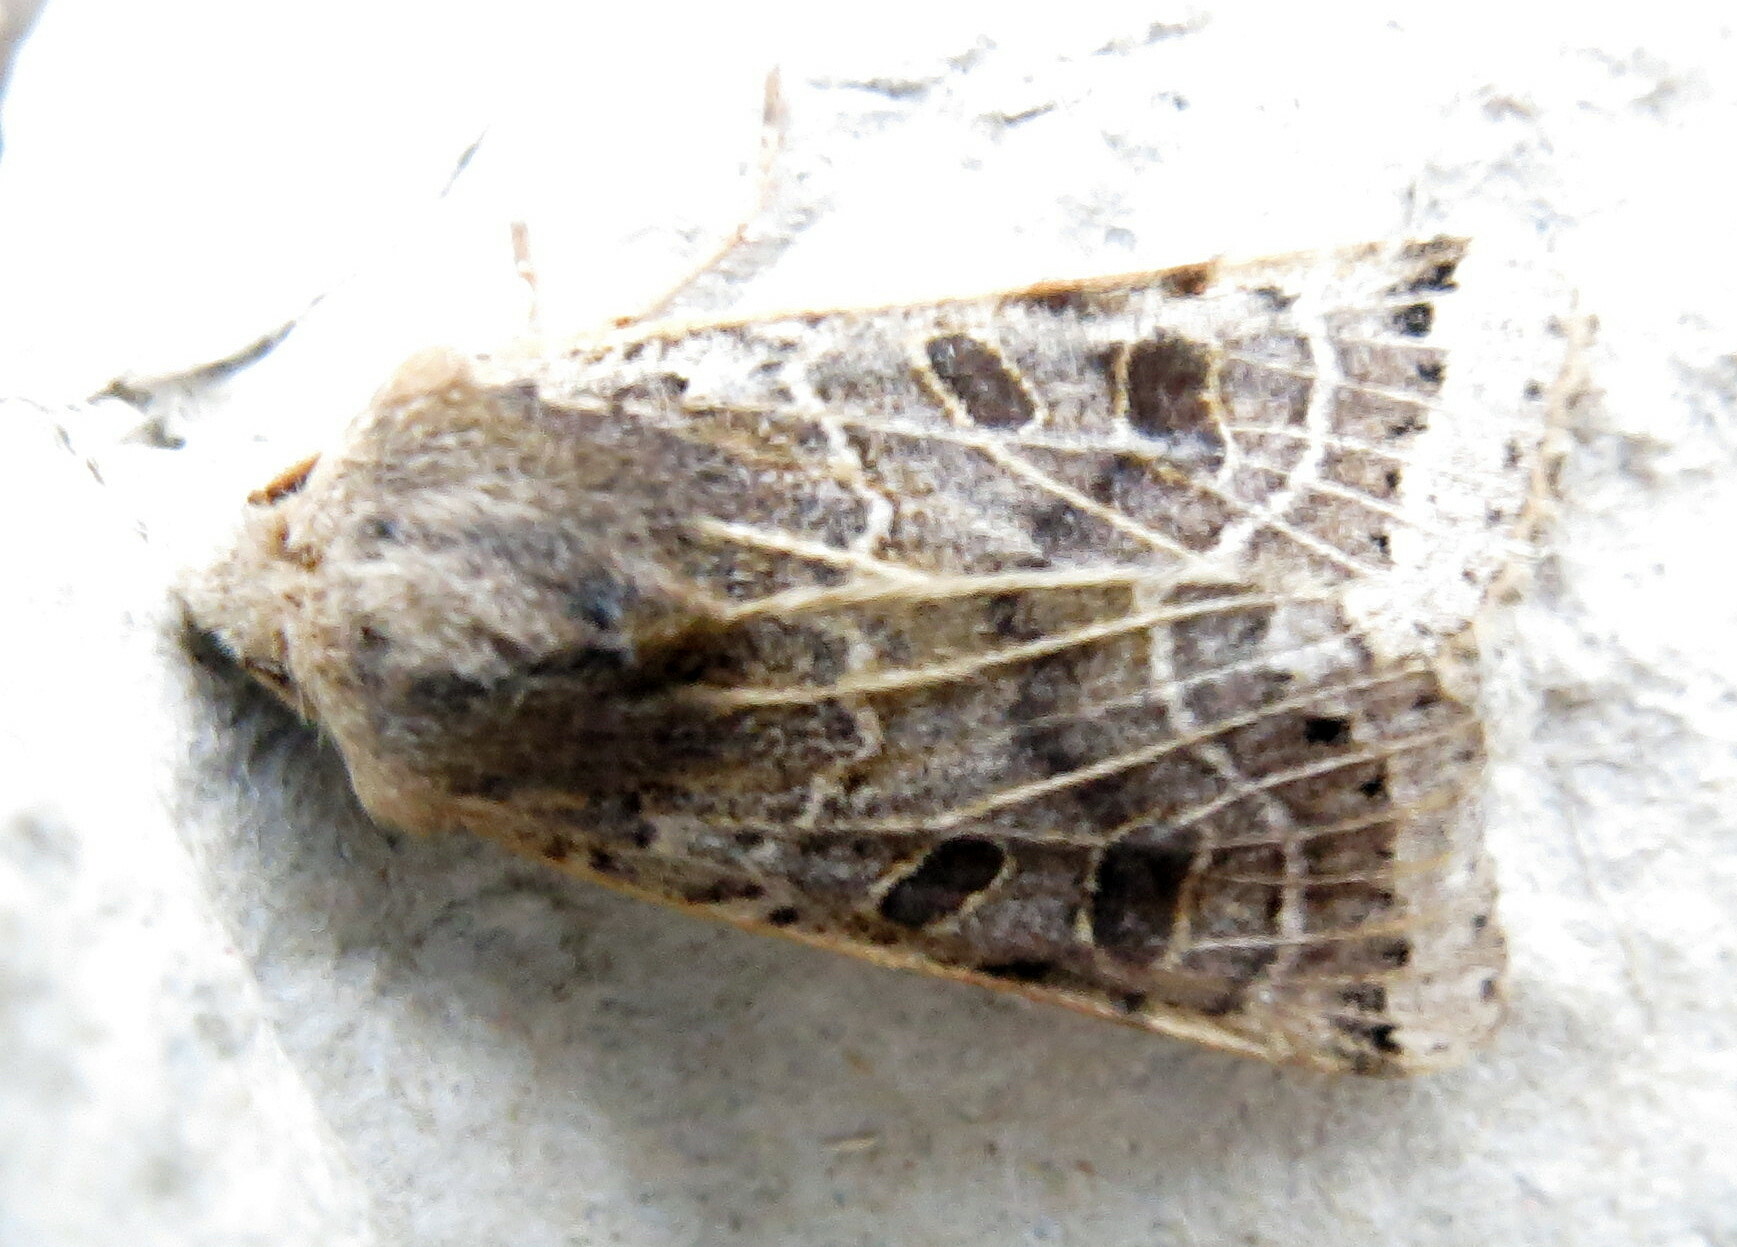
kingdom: Animalia
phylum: Arthropoda
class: Insecta
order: Lepidoptera
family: Noctuidae
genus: Agrochola
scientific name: Agrochola lunosa
